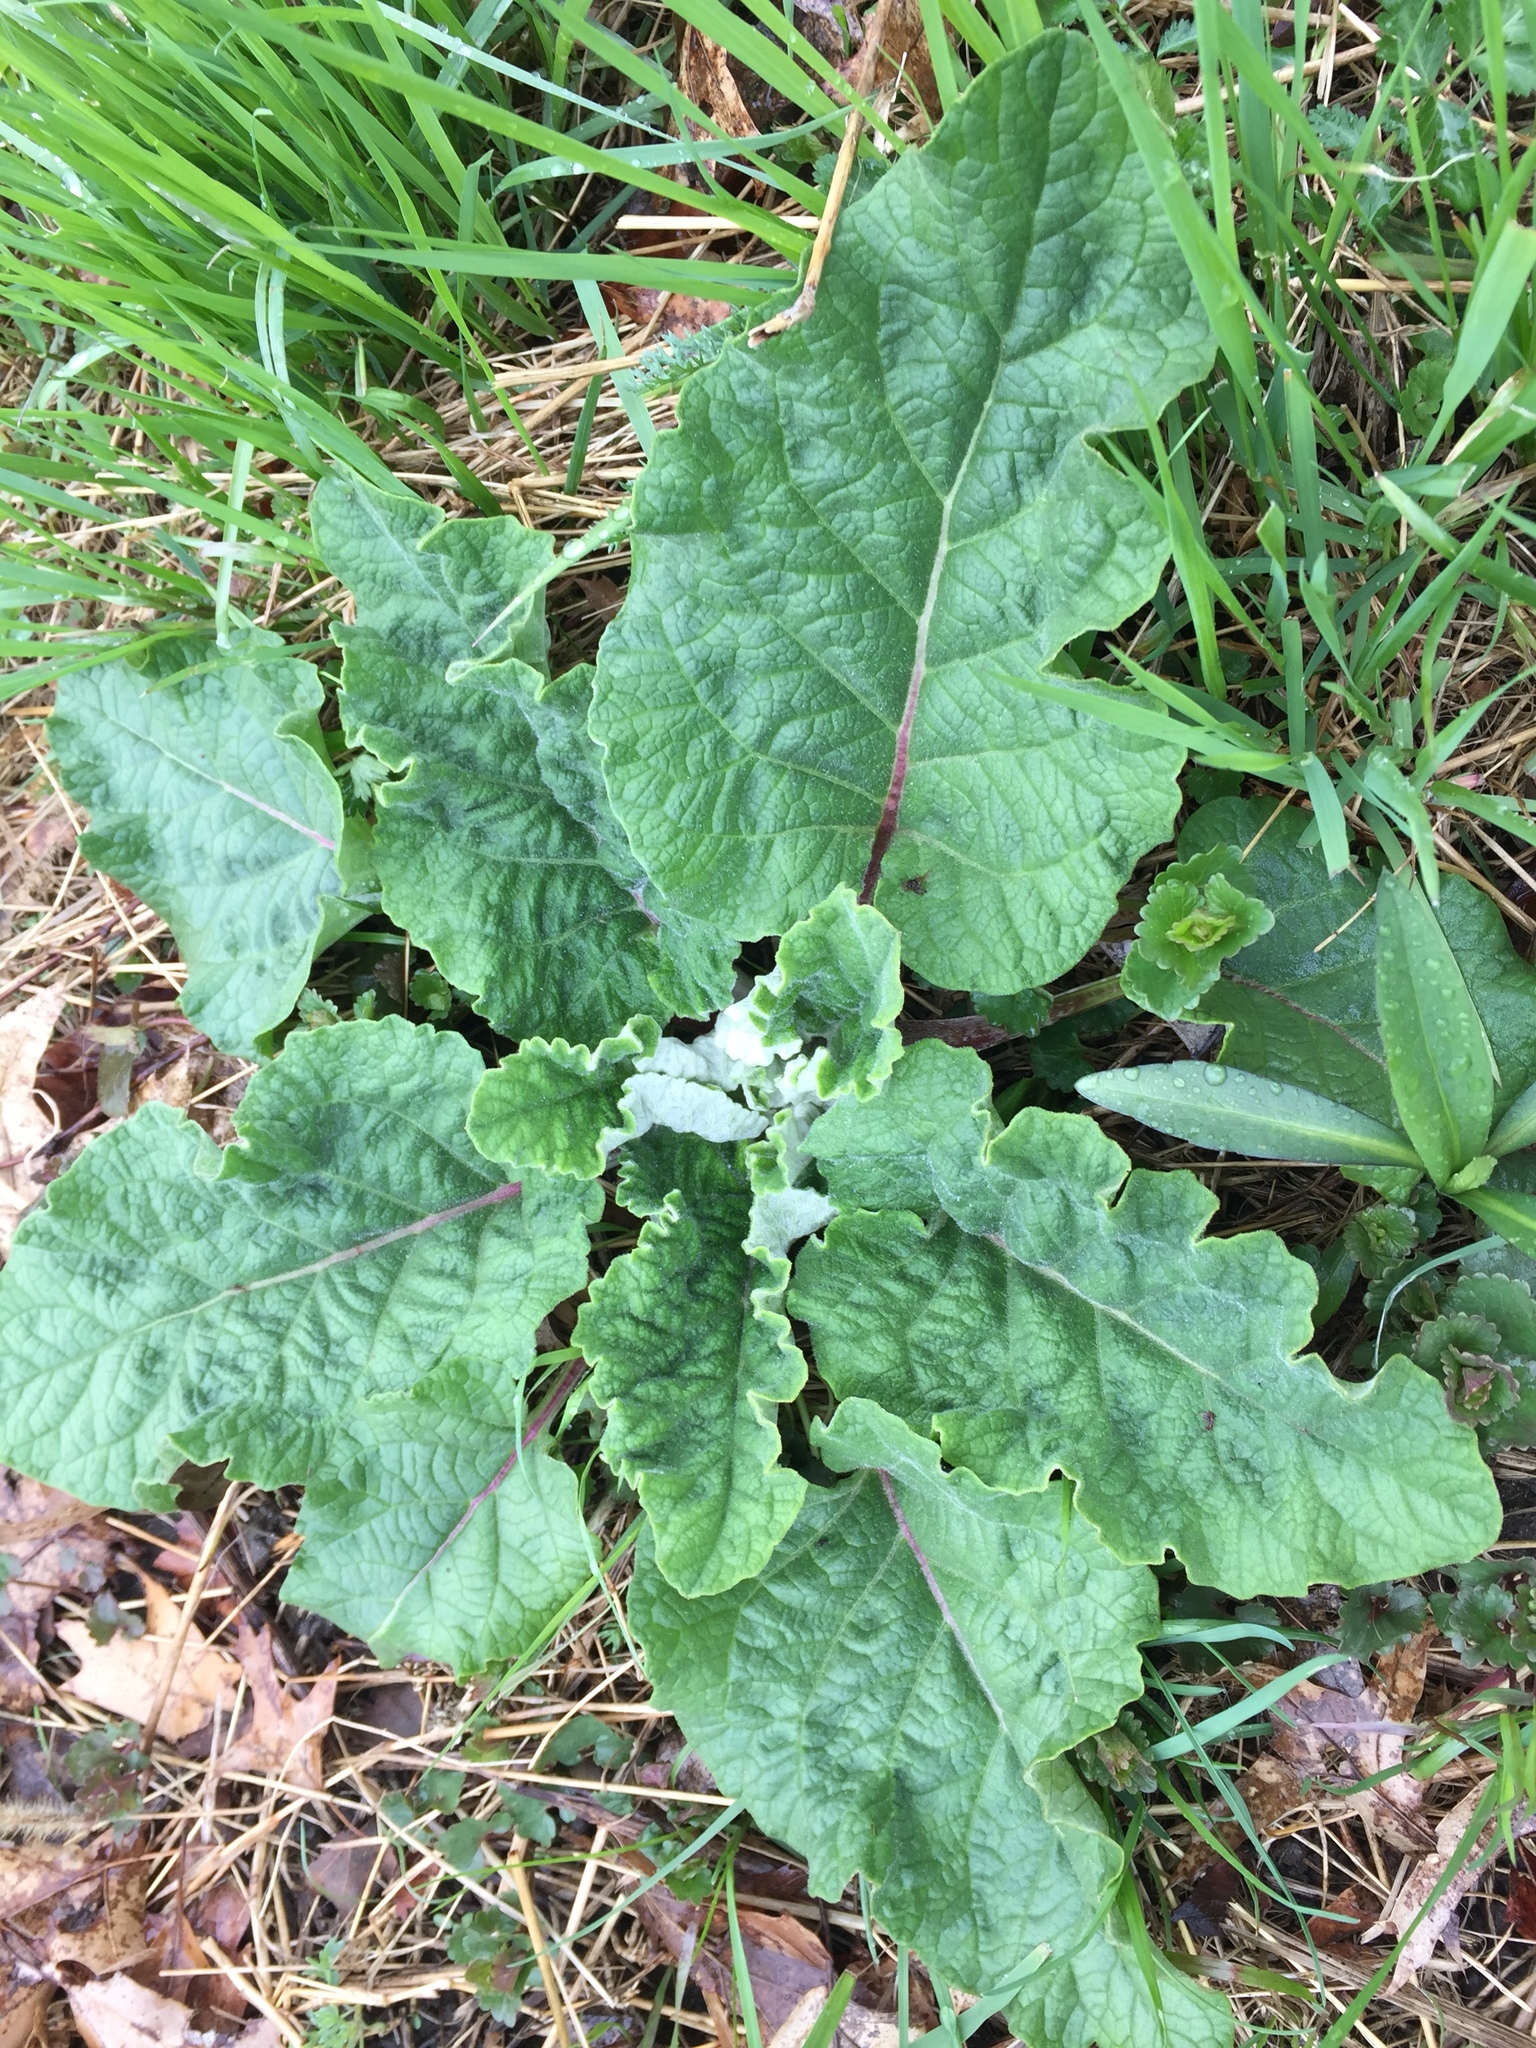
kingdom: Plantae
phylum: Tracheophyta
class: Magnoliopsida
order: Asterales
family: Asteraceae
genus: Arctium
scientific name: Arctium minus
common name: Lesser burdock
